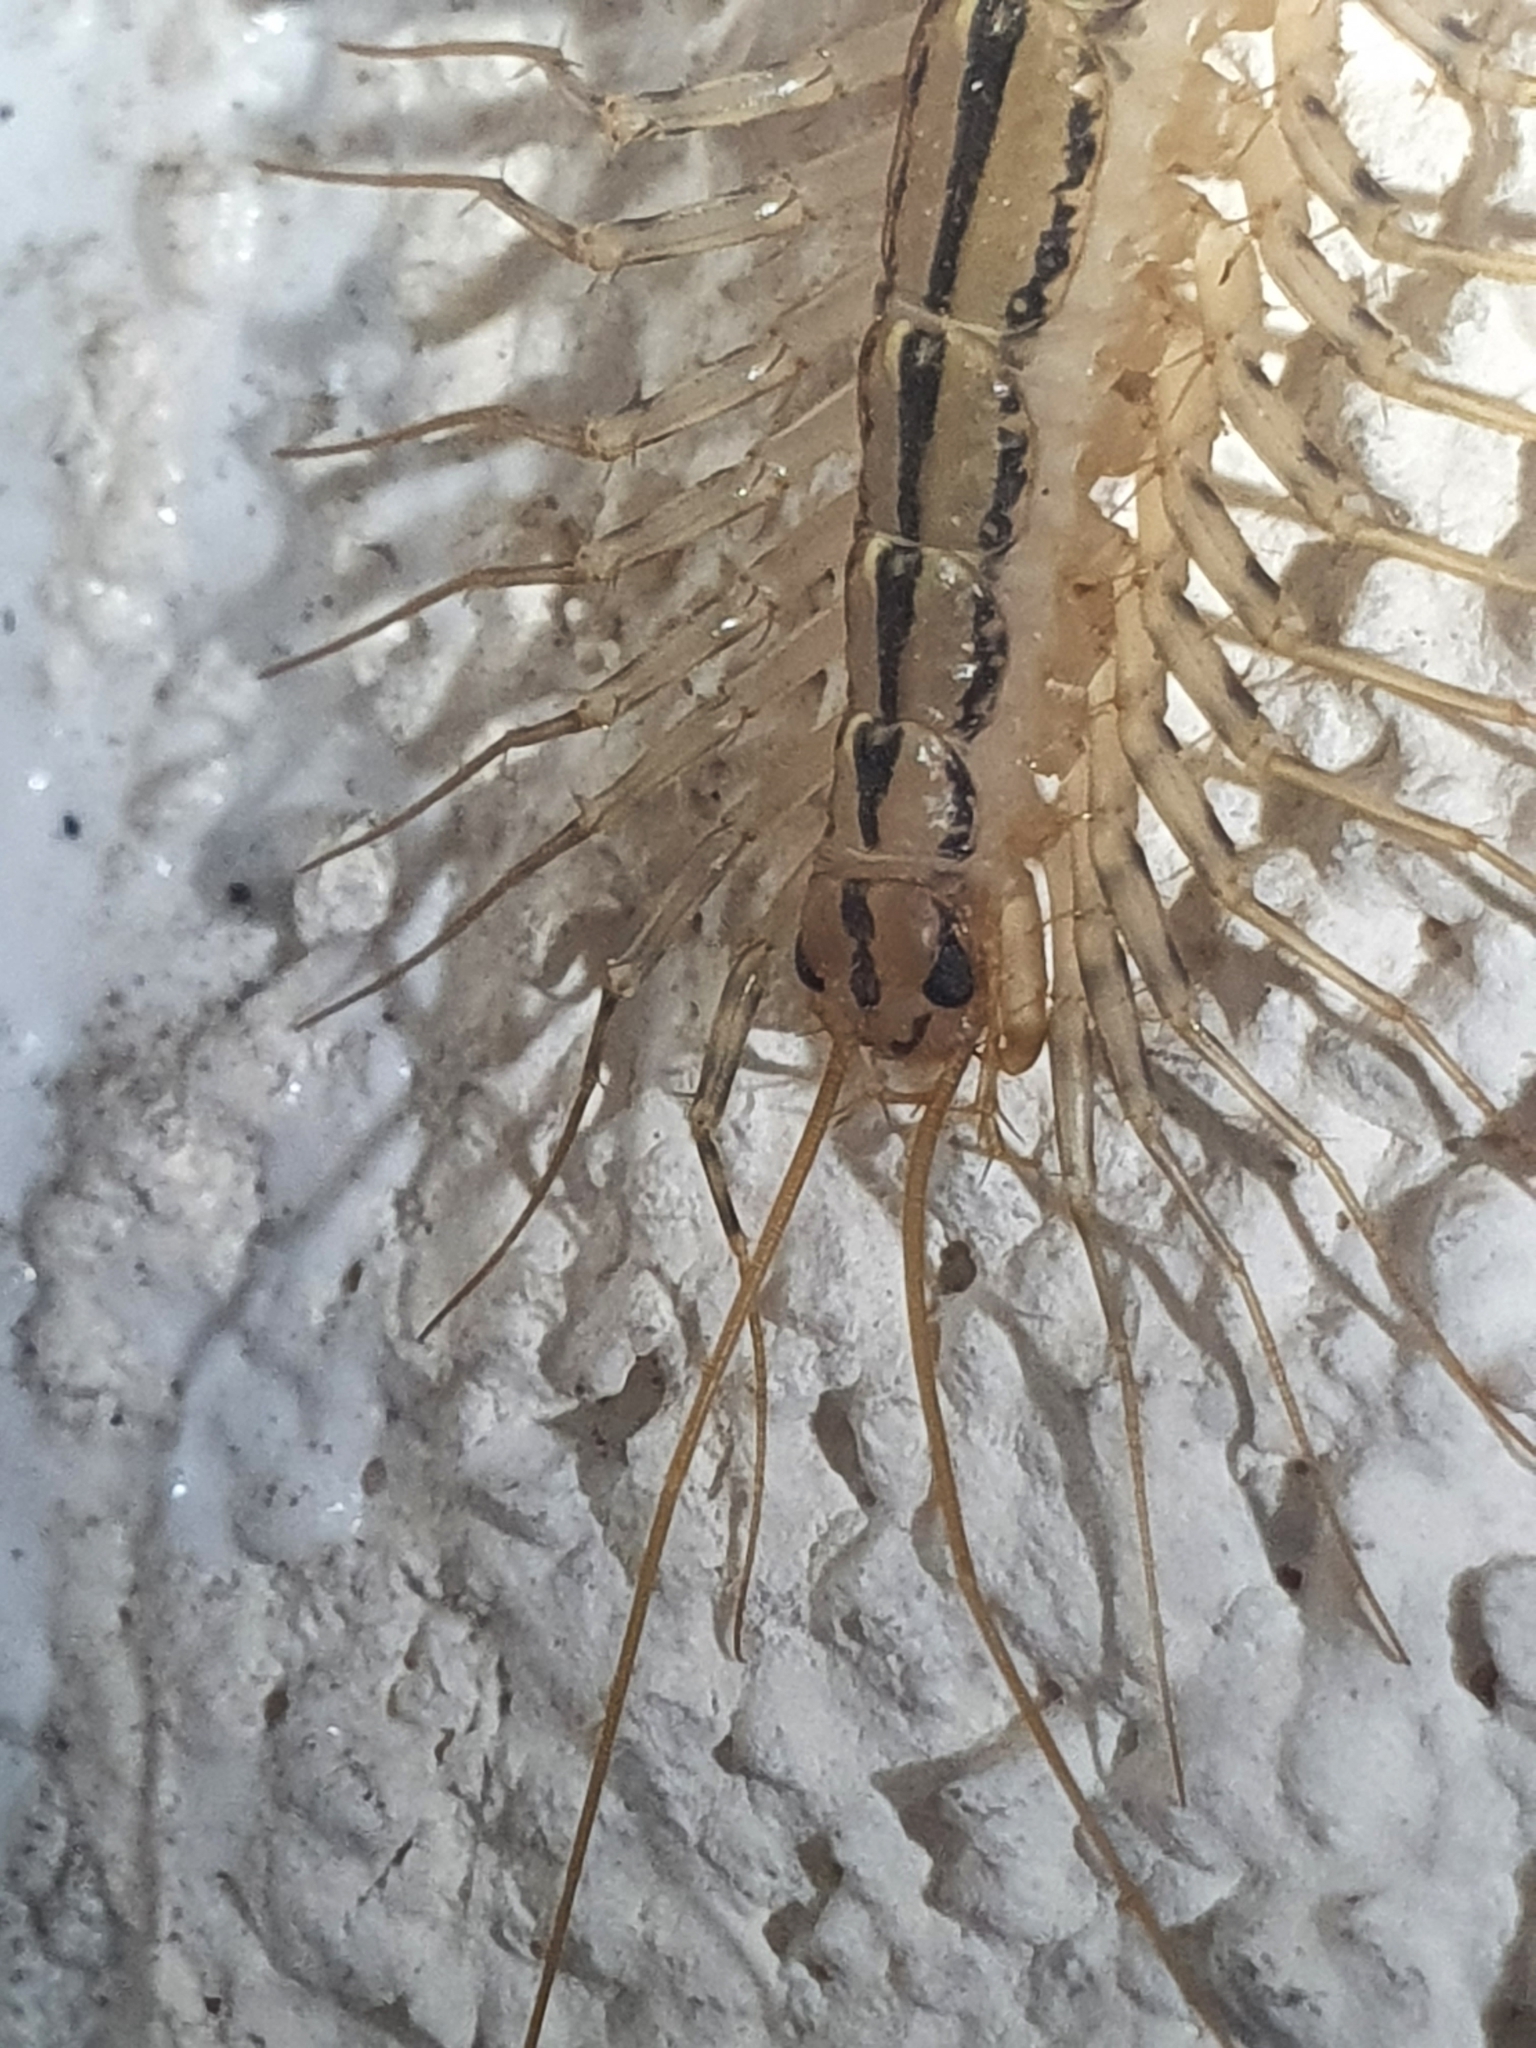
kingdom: Animalia
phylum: Arthropoda
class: Chilopoda
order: Scutigeromorpha
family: Scutigeridae
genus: Scutigera
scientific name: Scutigera coleoptrata
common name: House centipede
